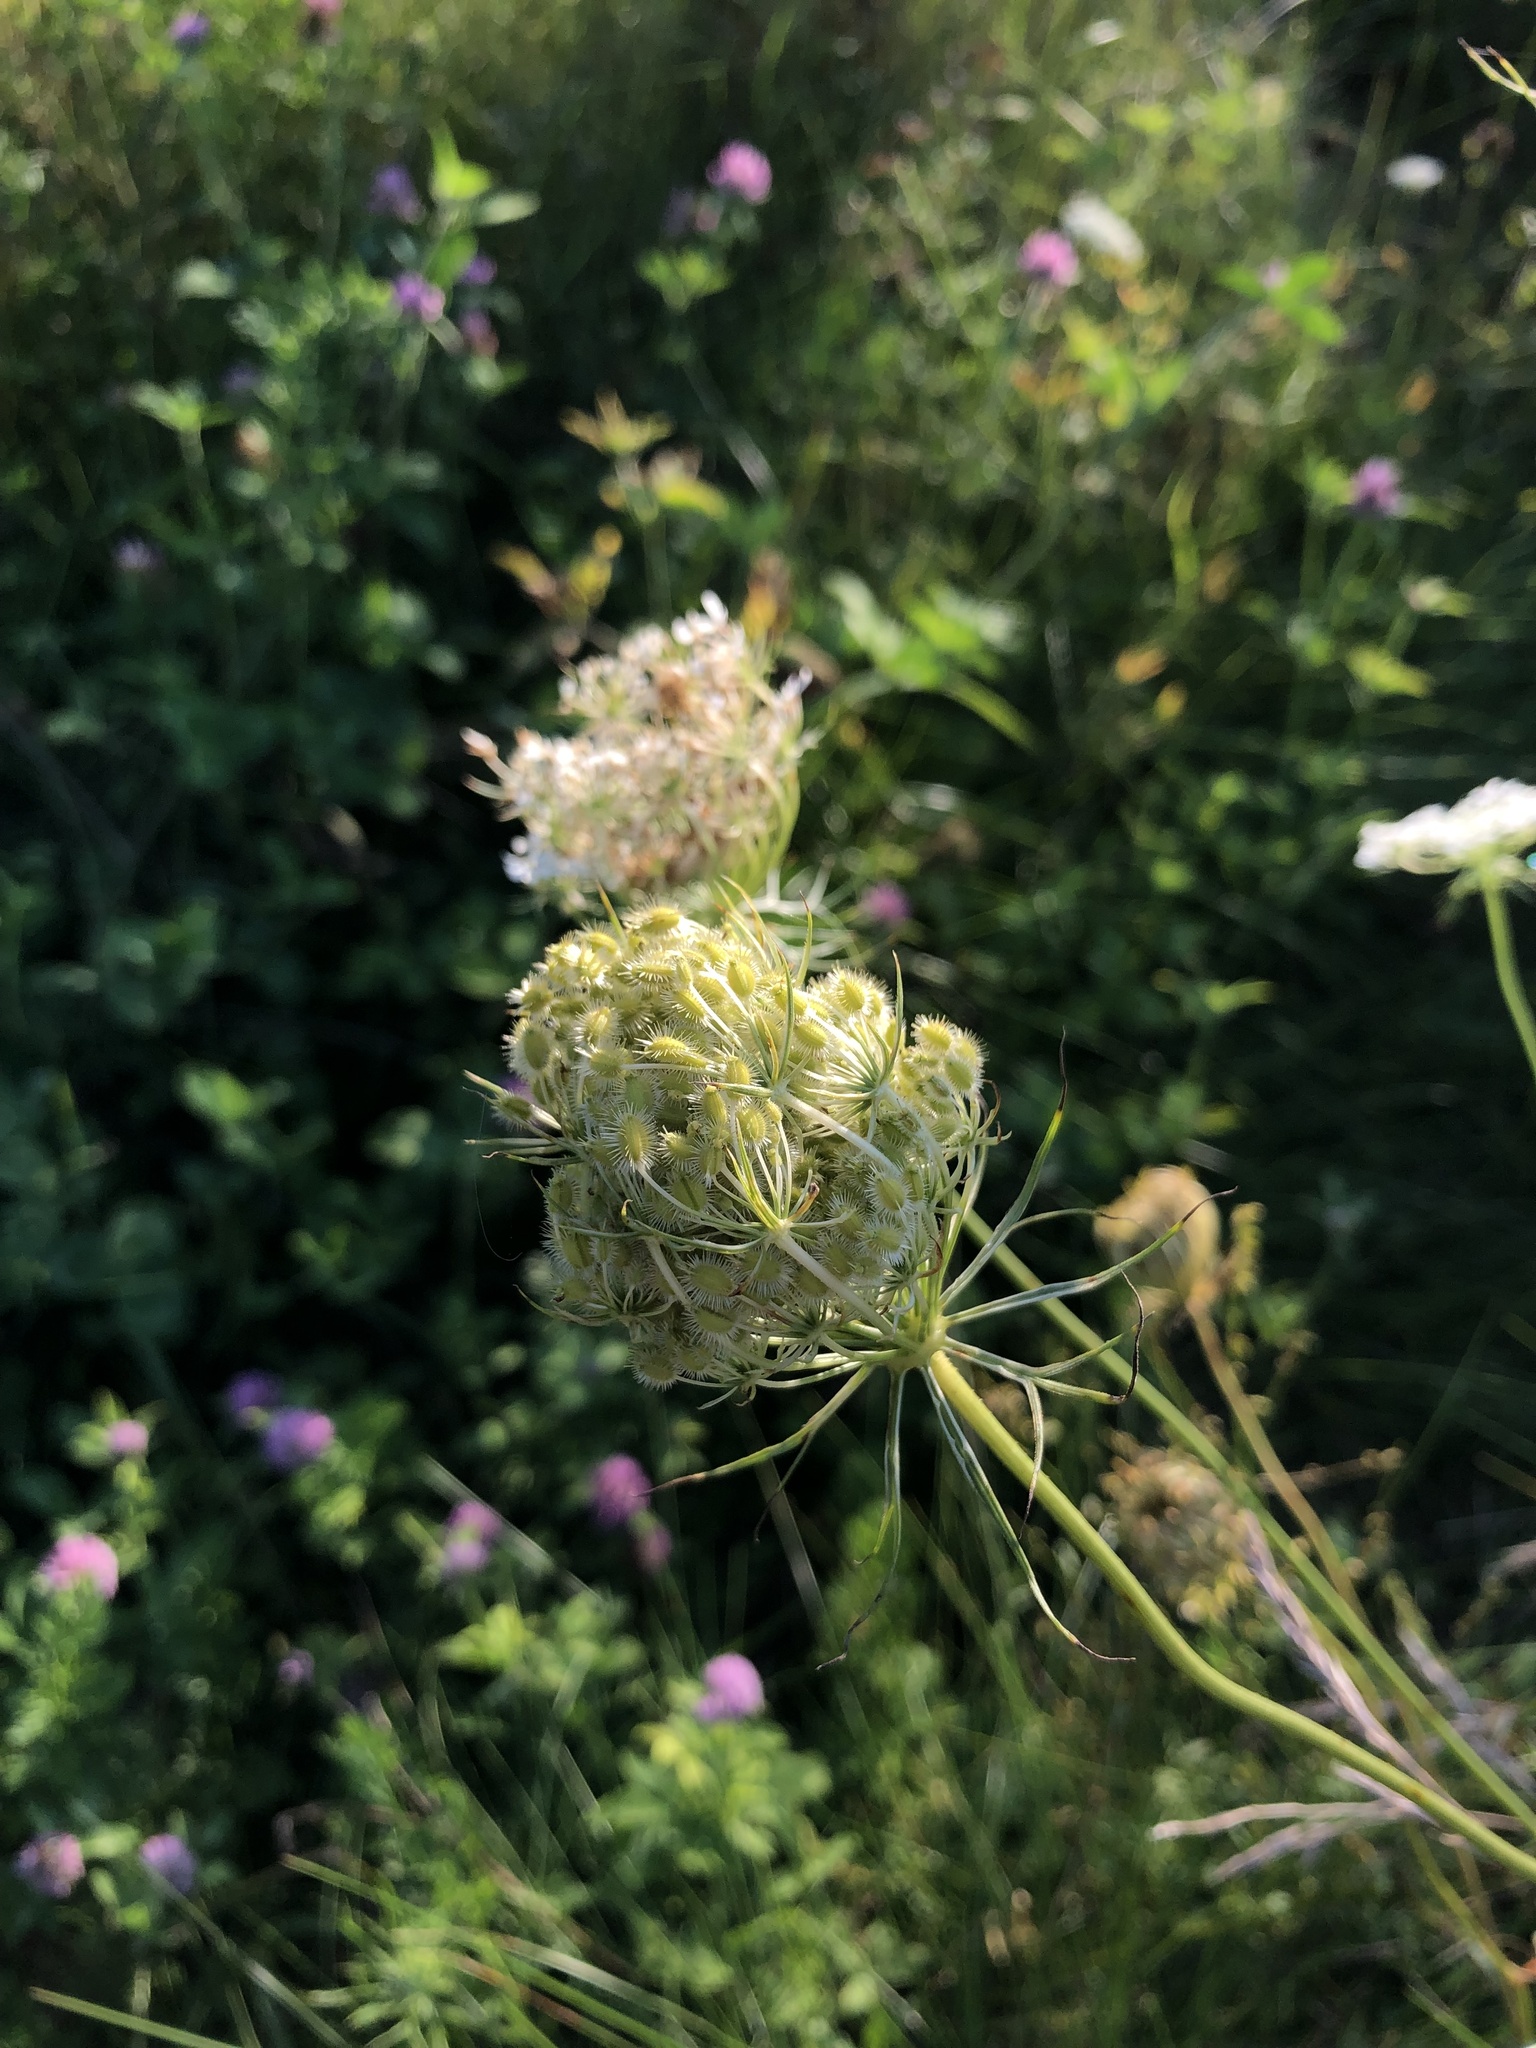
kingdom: Plantae
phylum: Tracheophyta
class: Magnoliopsida
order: Apiales
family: Apiaceae
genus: Daucus
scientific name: Daucus carota
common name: Wild carrot
